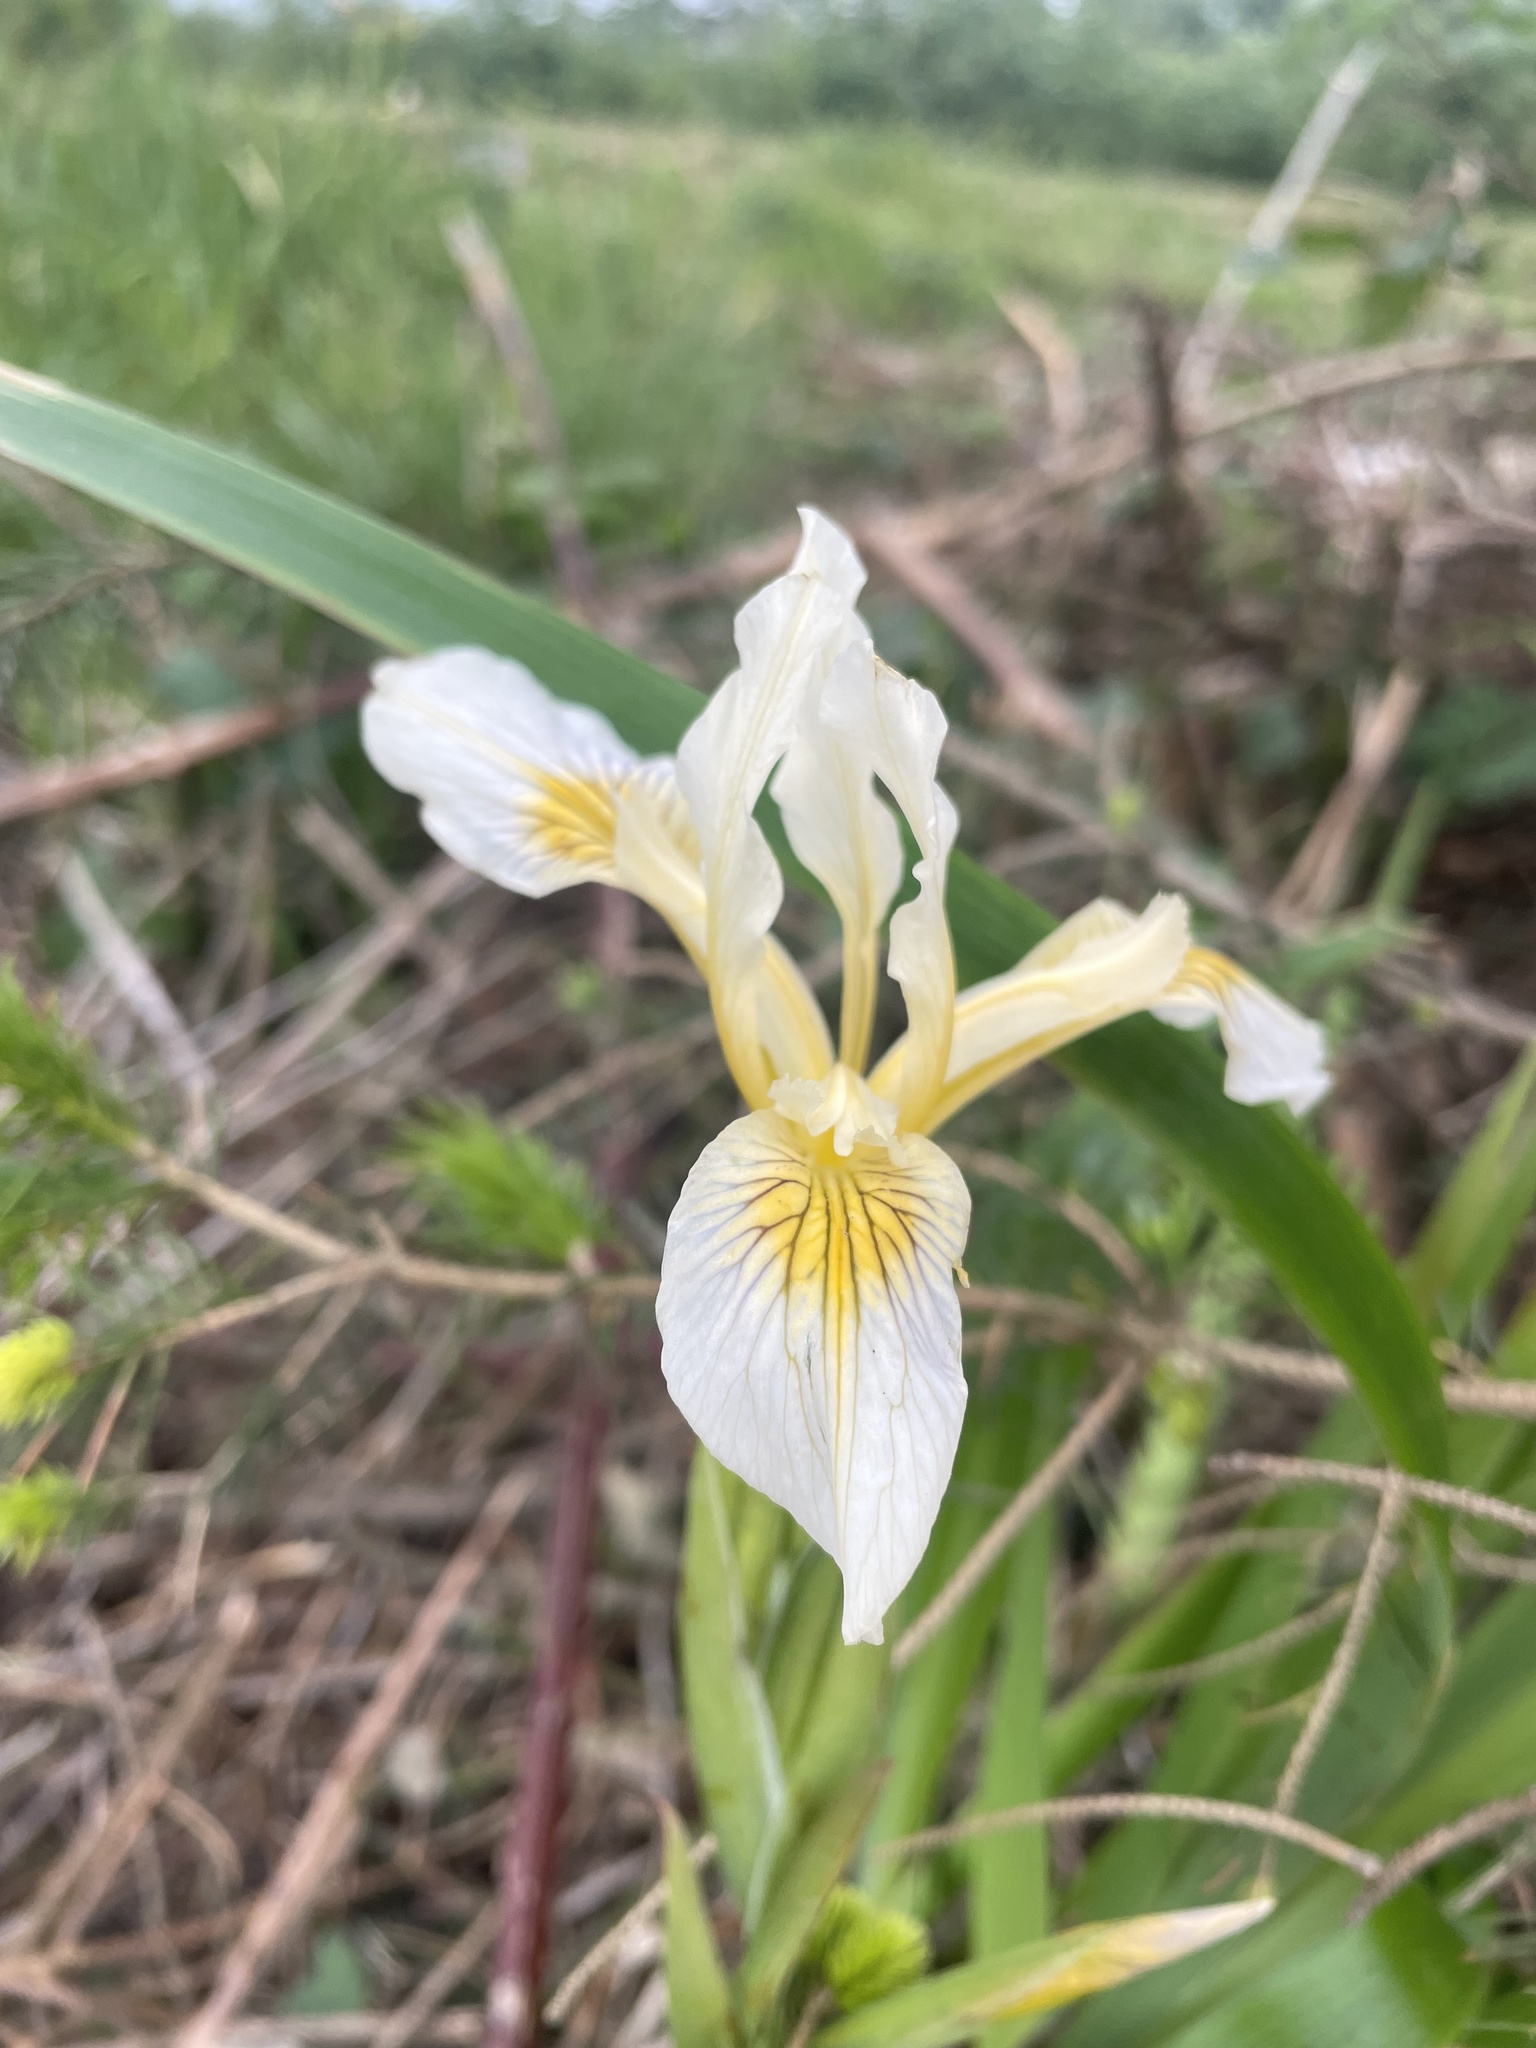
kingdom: Plantae
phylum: Tracheophyta
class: Liliopsida
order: Asparagales
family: Iridaceae
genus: Iris
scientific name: Iris douglasiana
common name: Marin iris
